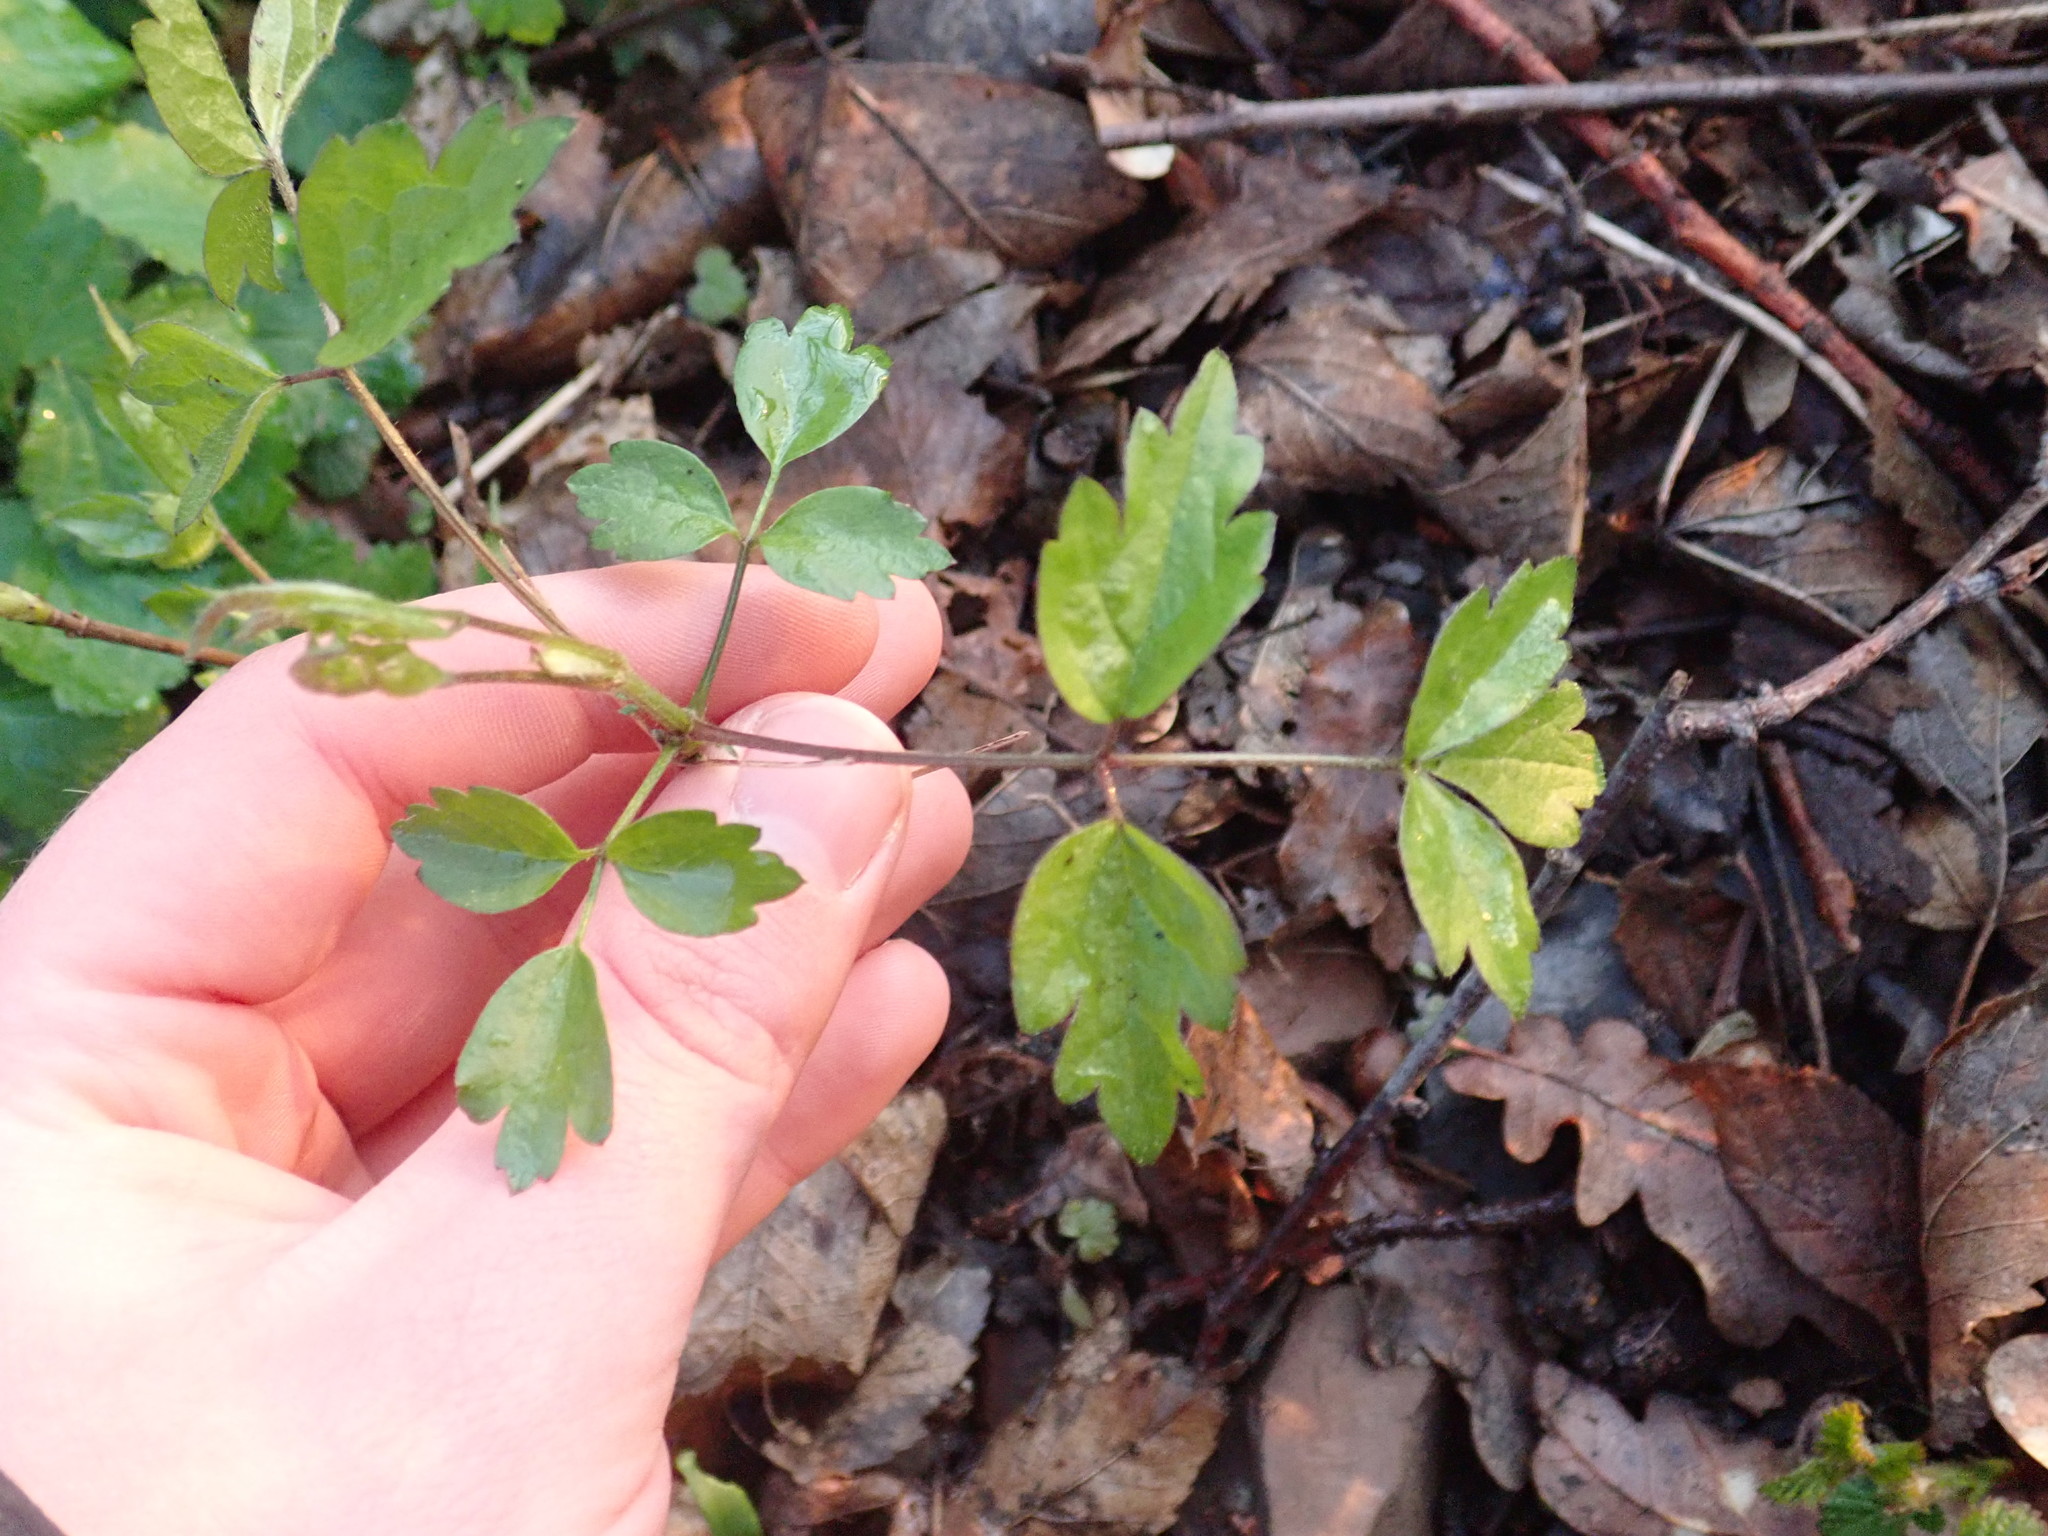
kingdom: Plantae
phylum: Tracheophyta
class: Magnoliopsida
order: Ranunculales
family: Ranunculaceae
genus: Clematis
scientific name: Clematis vitalba
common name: Evergreen clematis
